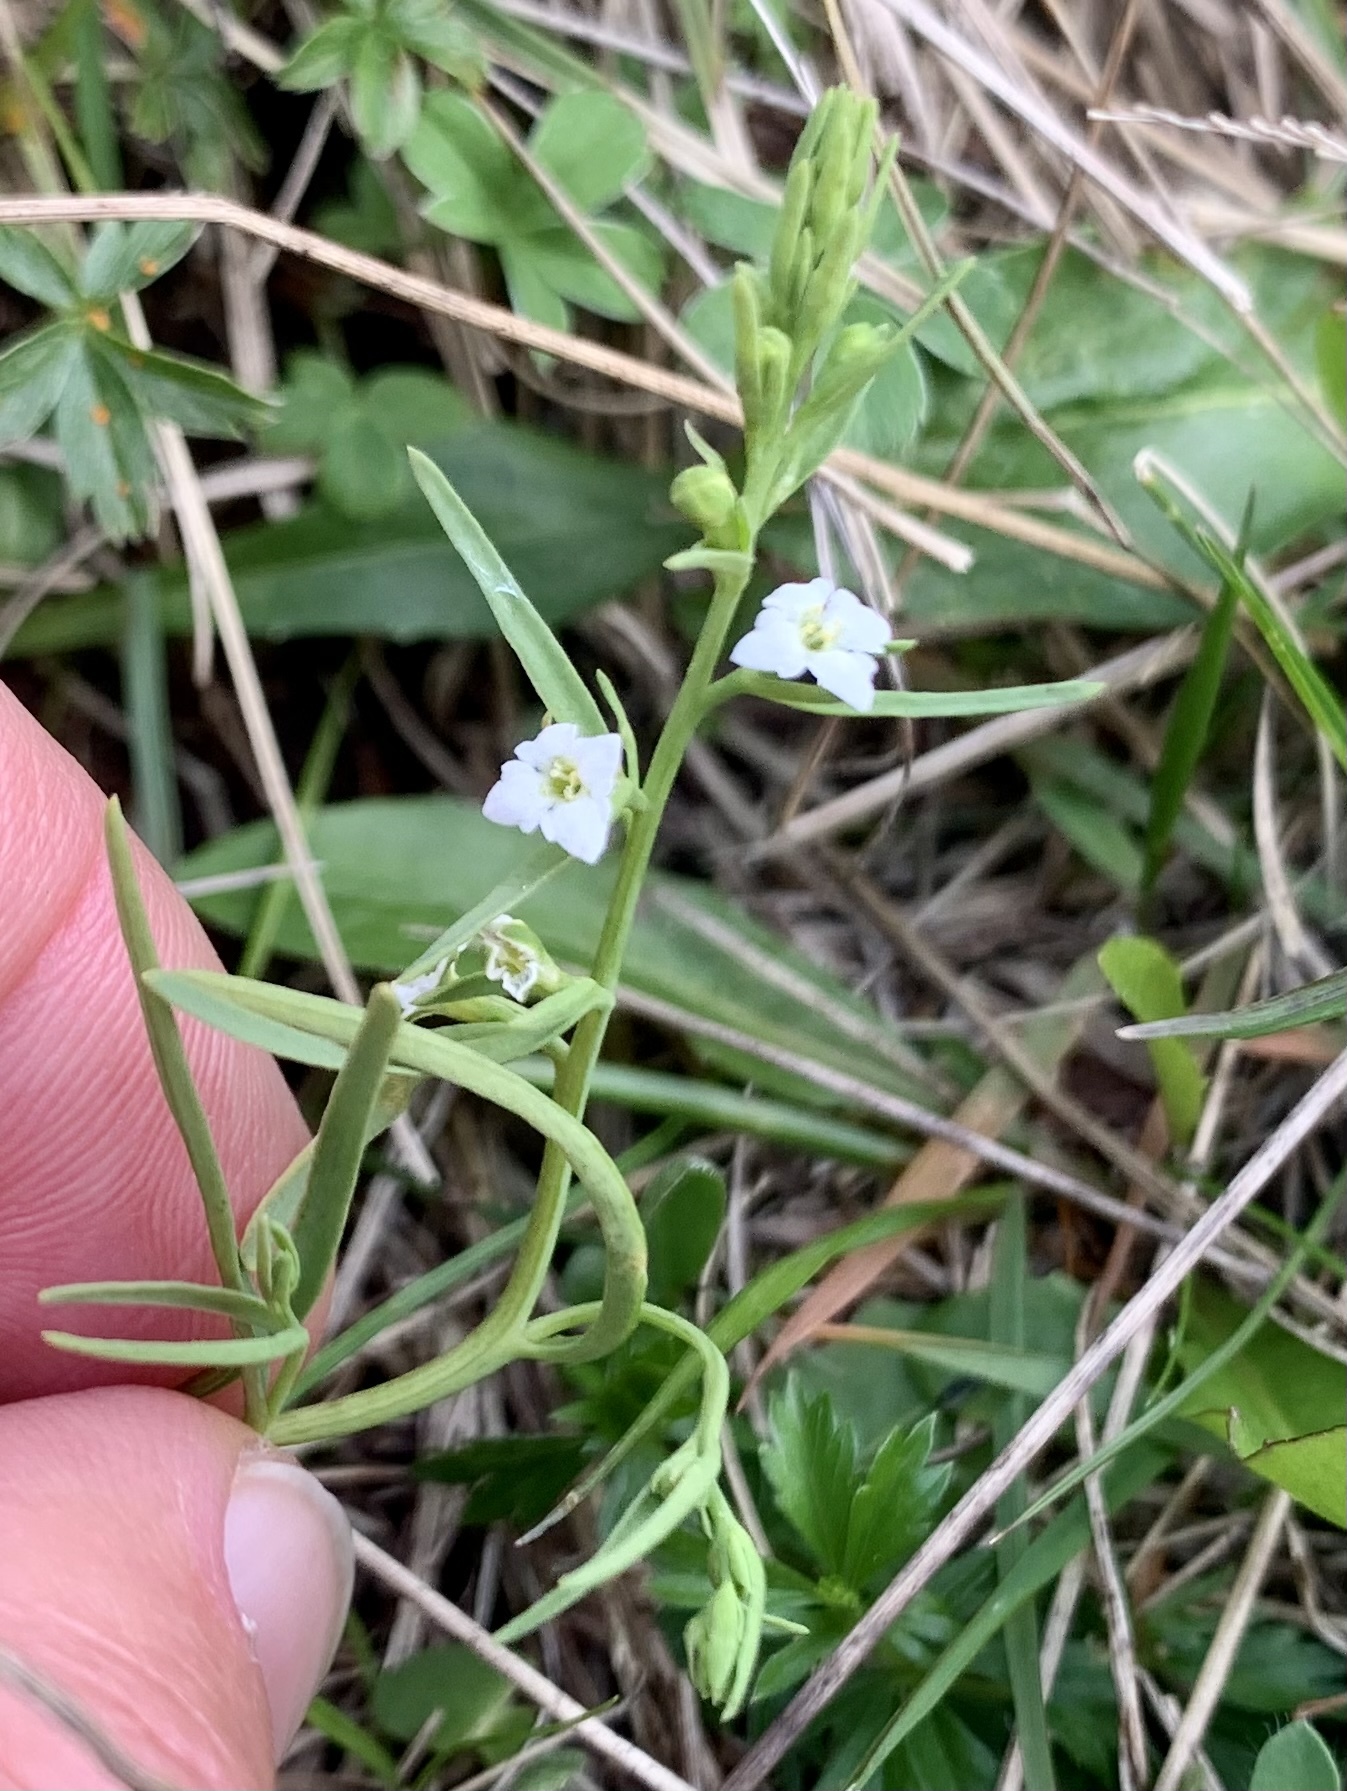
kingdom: Plantae
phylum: Tracheophyta
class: Magnoliopsida
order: Santalales
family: Thesiaceae
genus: Thesium
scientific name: Thesium alpinum
